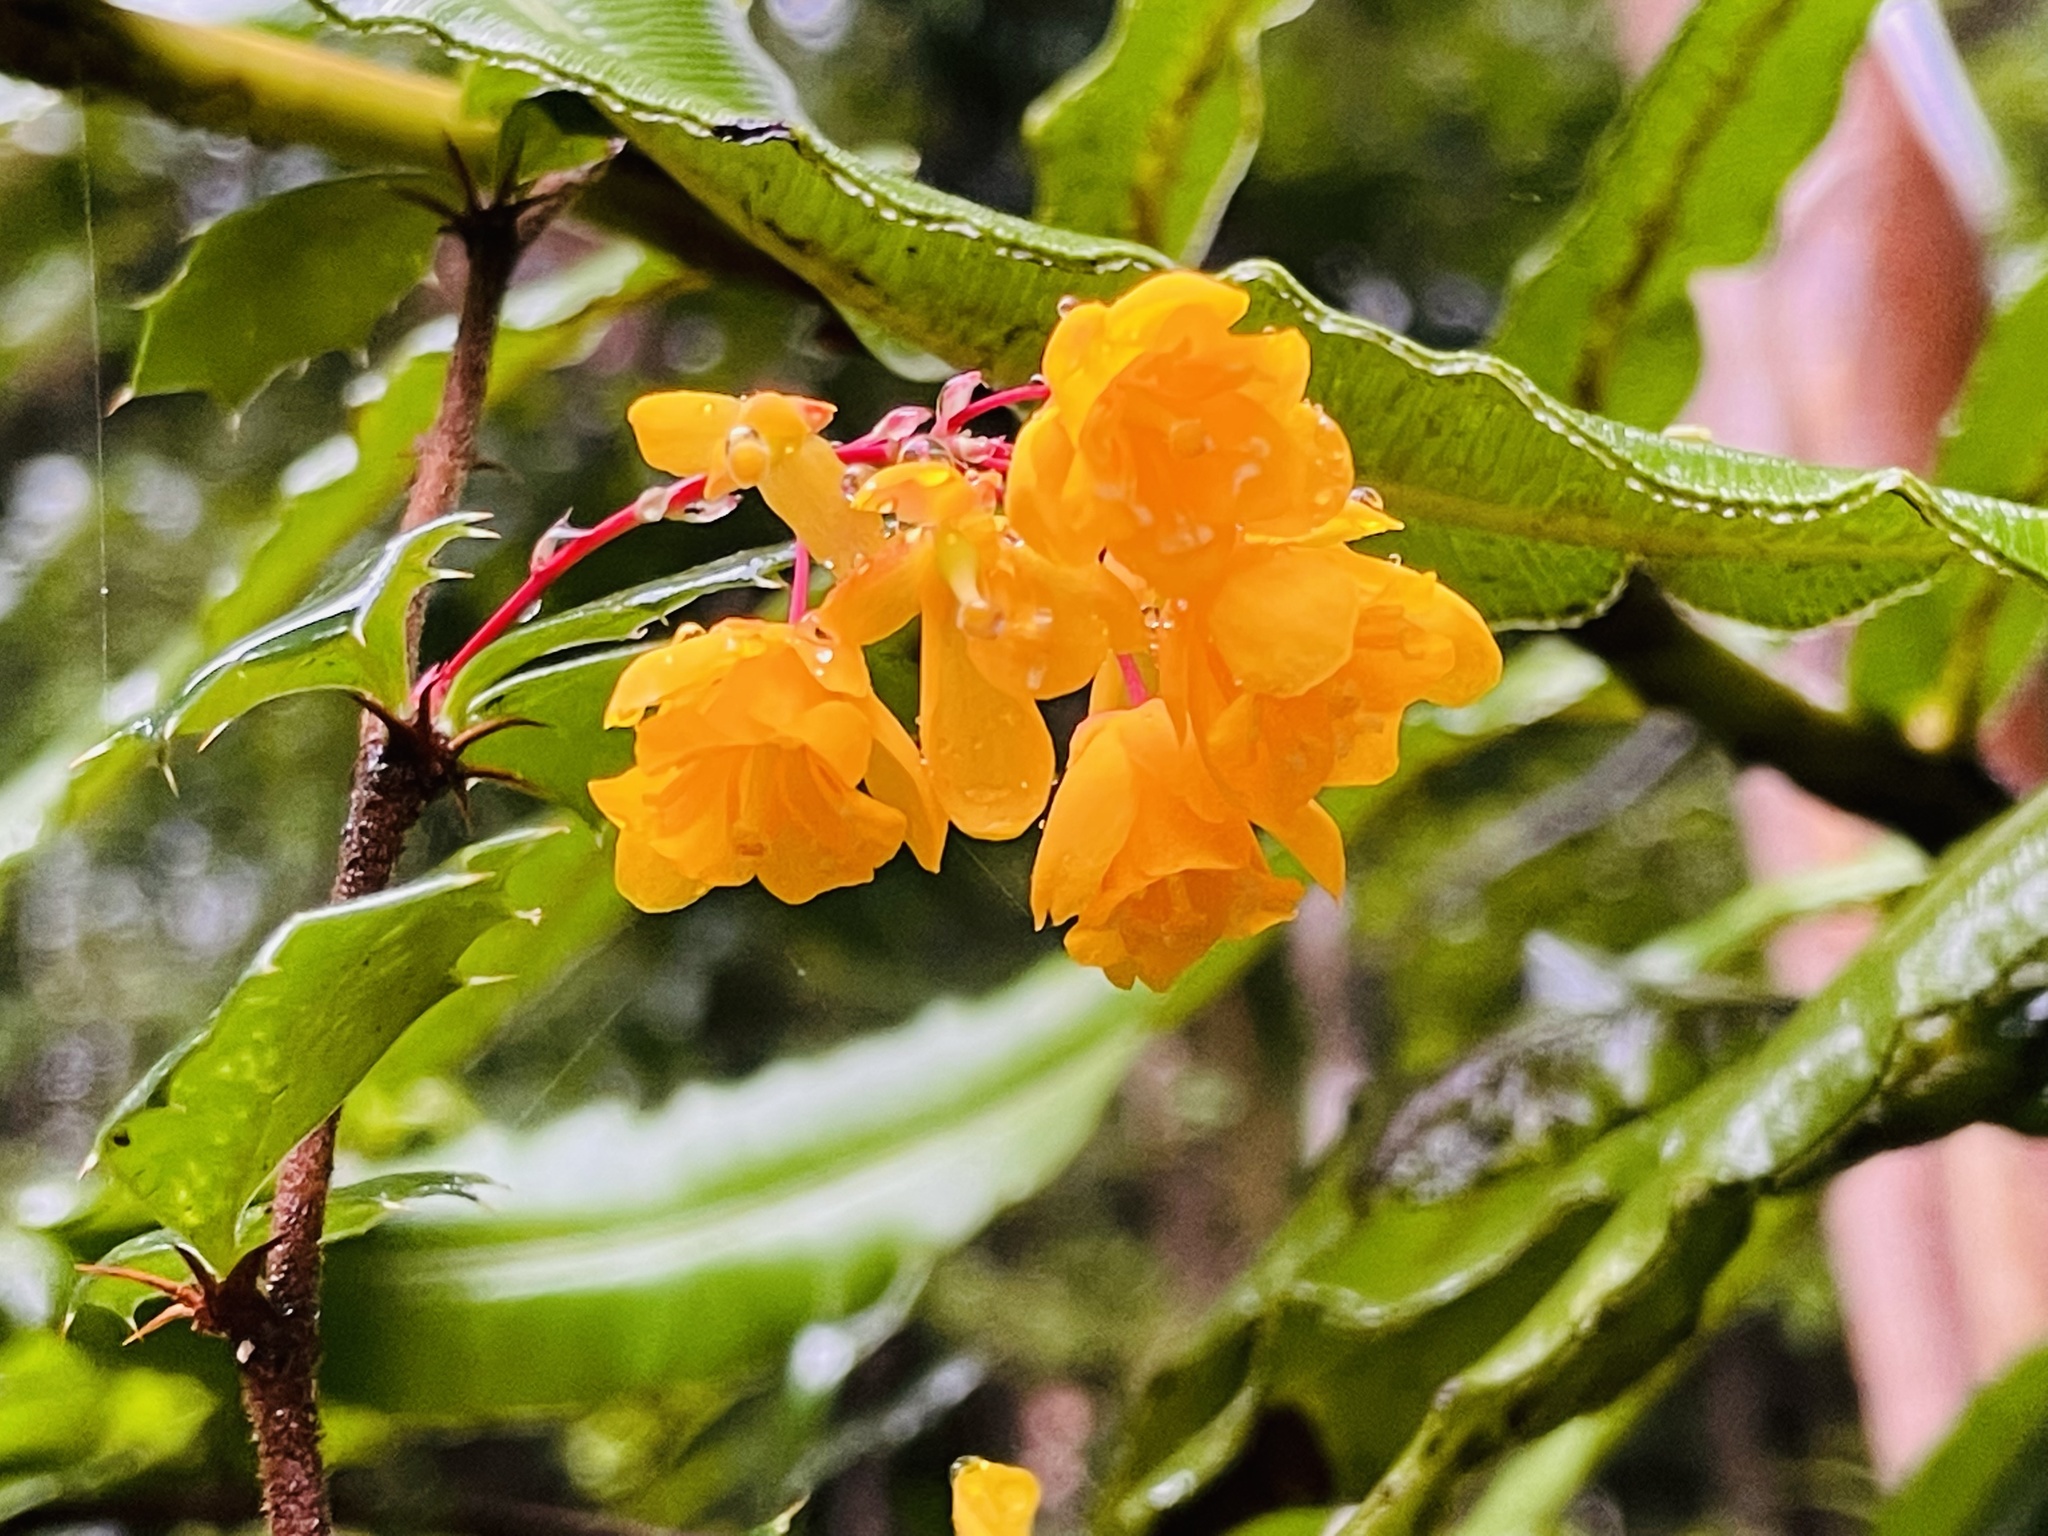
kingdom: Plantae
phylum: Tracheophyta
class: Magnoliopsida
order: Ranunculales
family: Berberidaceae
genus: Berberis
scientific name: Berberis darwinii
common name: Darwin's barberry
